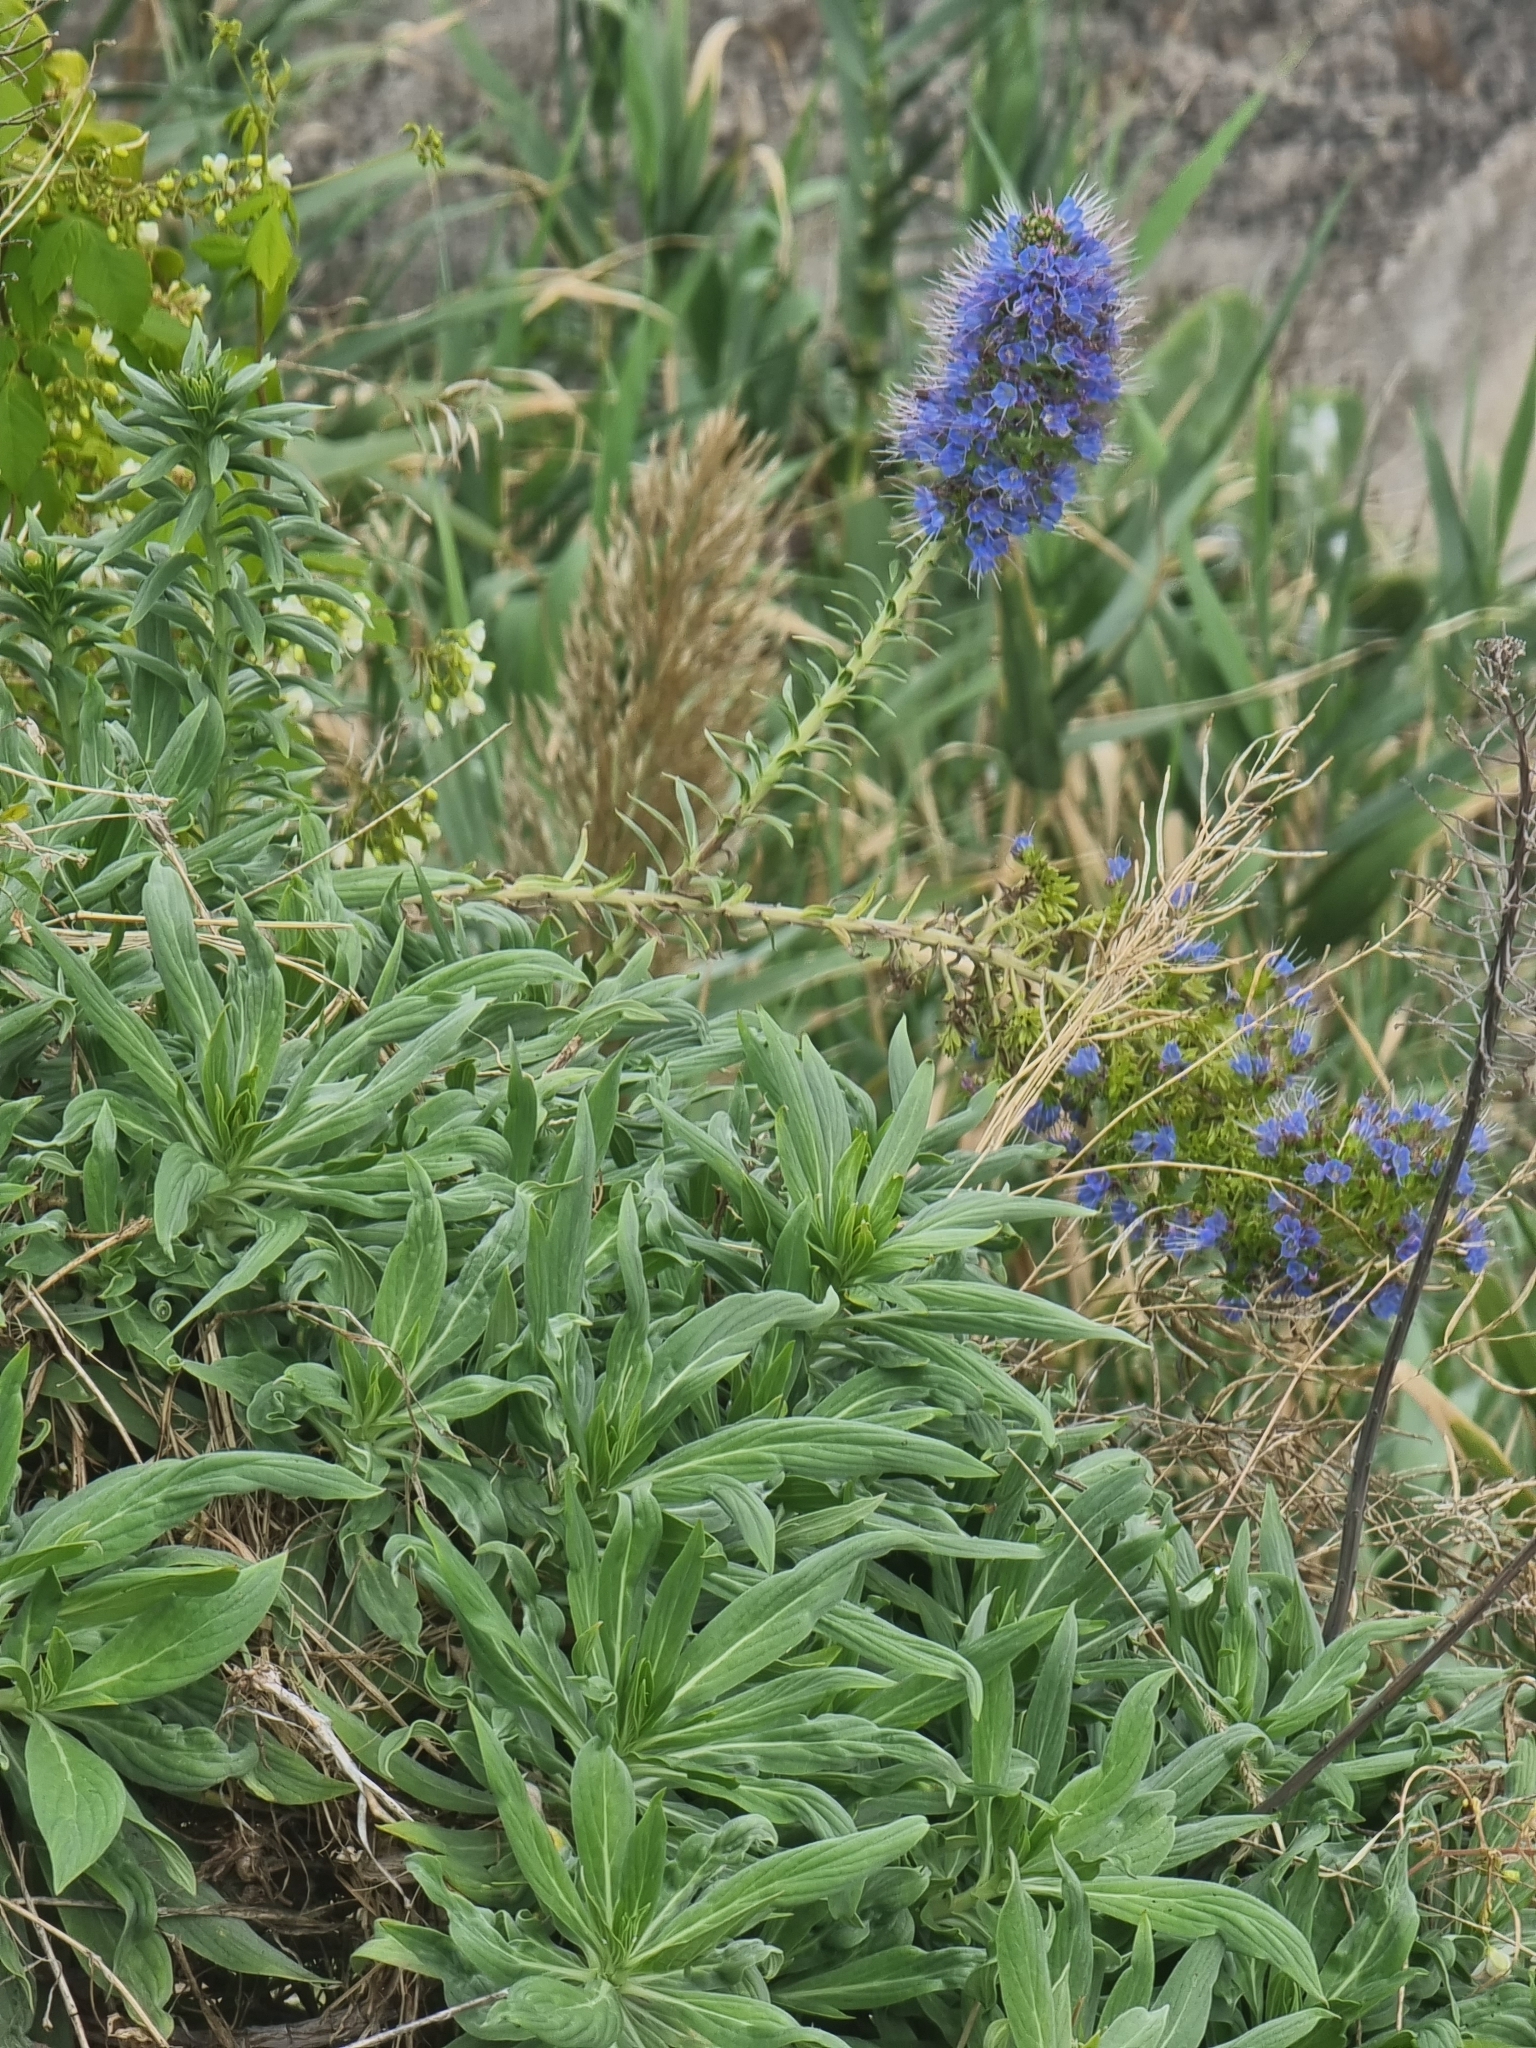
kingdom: Plantae
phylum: Tracheophyta
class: Magnoliopsida
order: Boraginales
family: Boraginaceae
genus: Echium
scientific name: Echium nervosum
